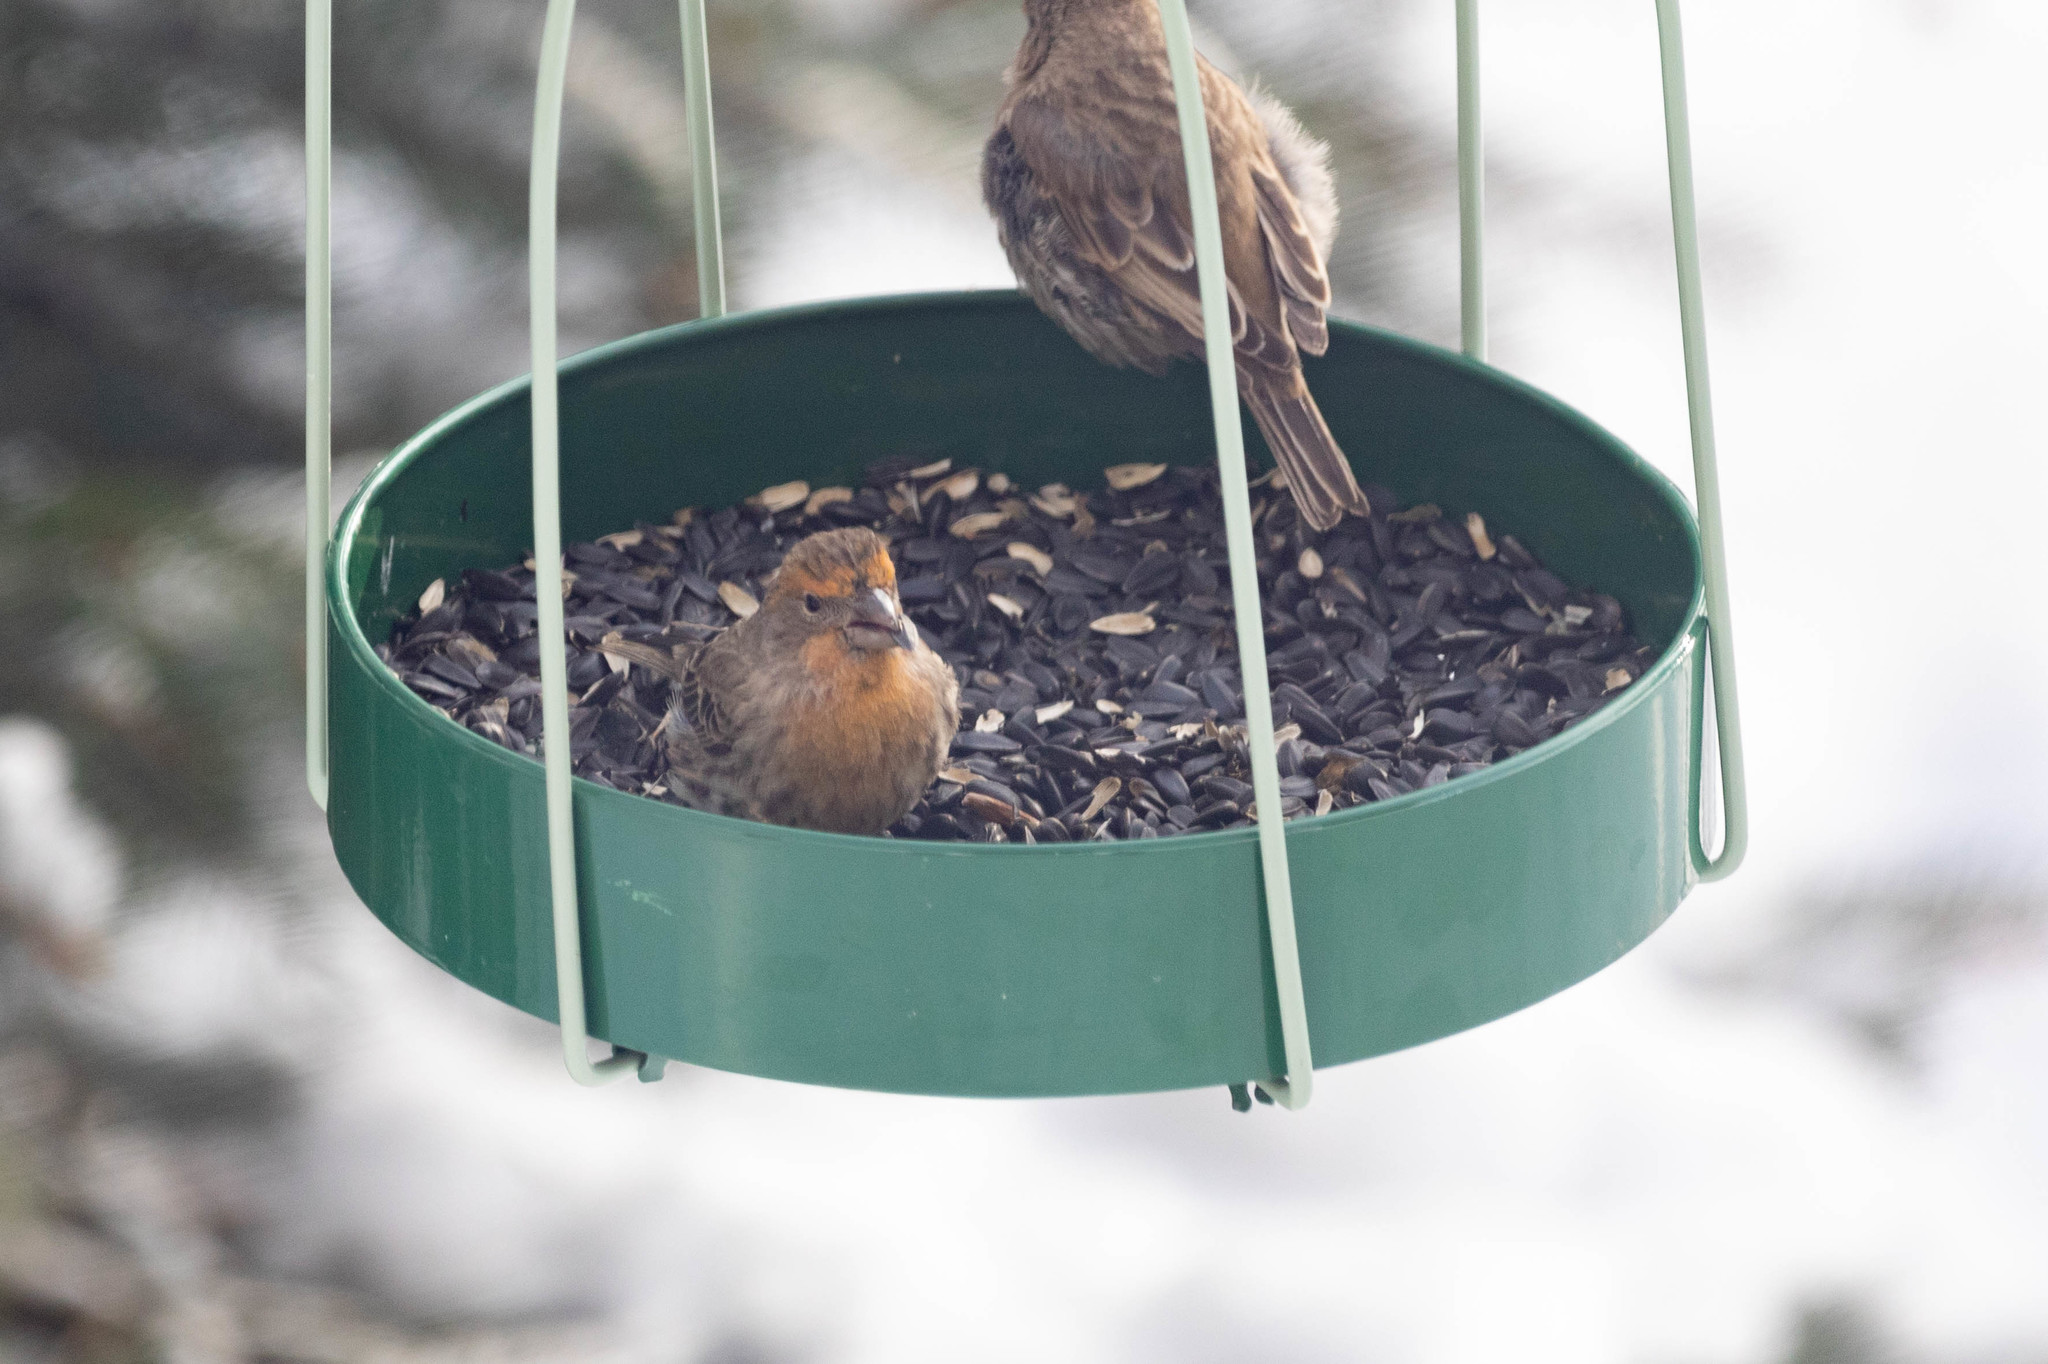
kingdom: Animalia
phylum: Chordata
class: Aves
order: Passeriformes
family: Fringillidae
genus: Haemorhous
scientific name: Haemorhous mexicanus
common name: House finch
